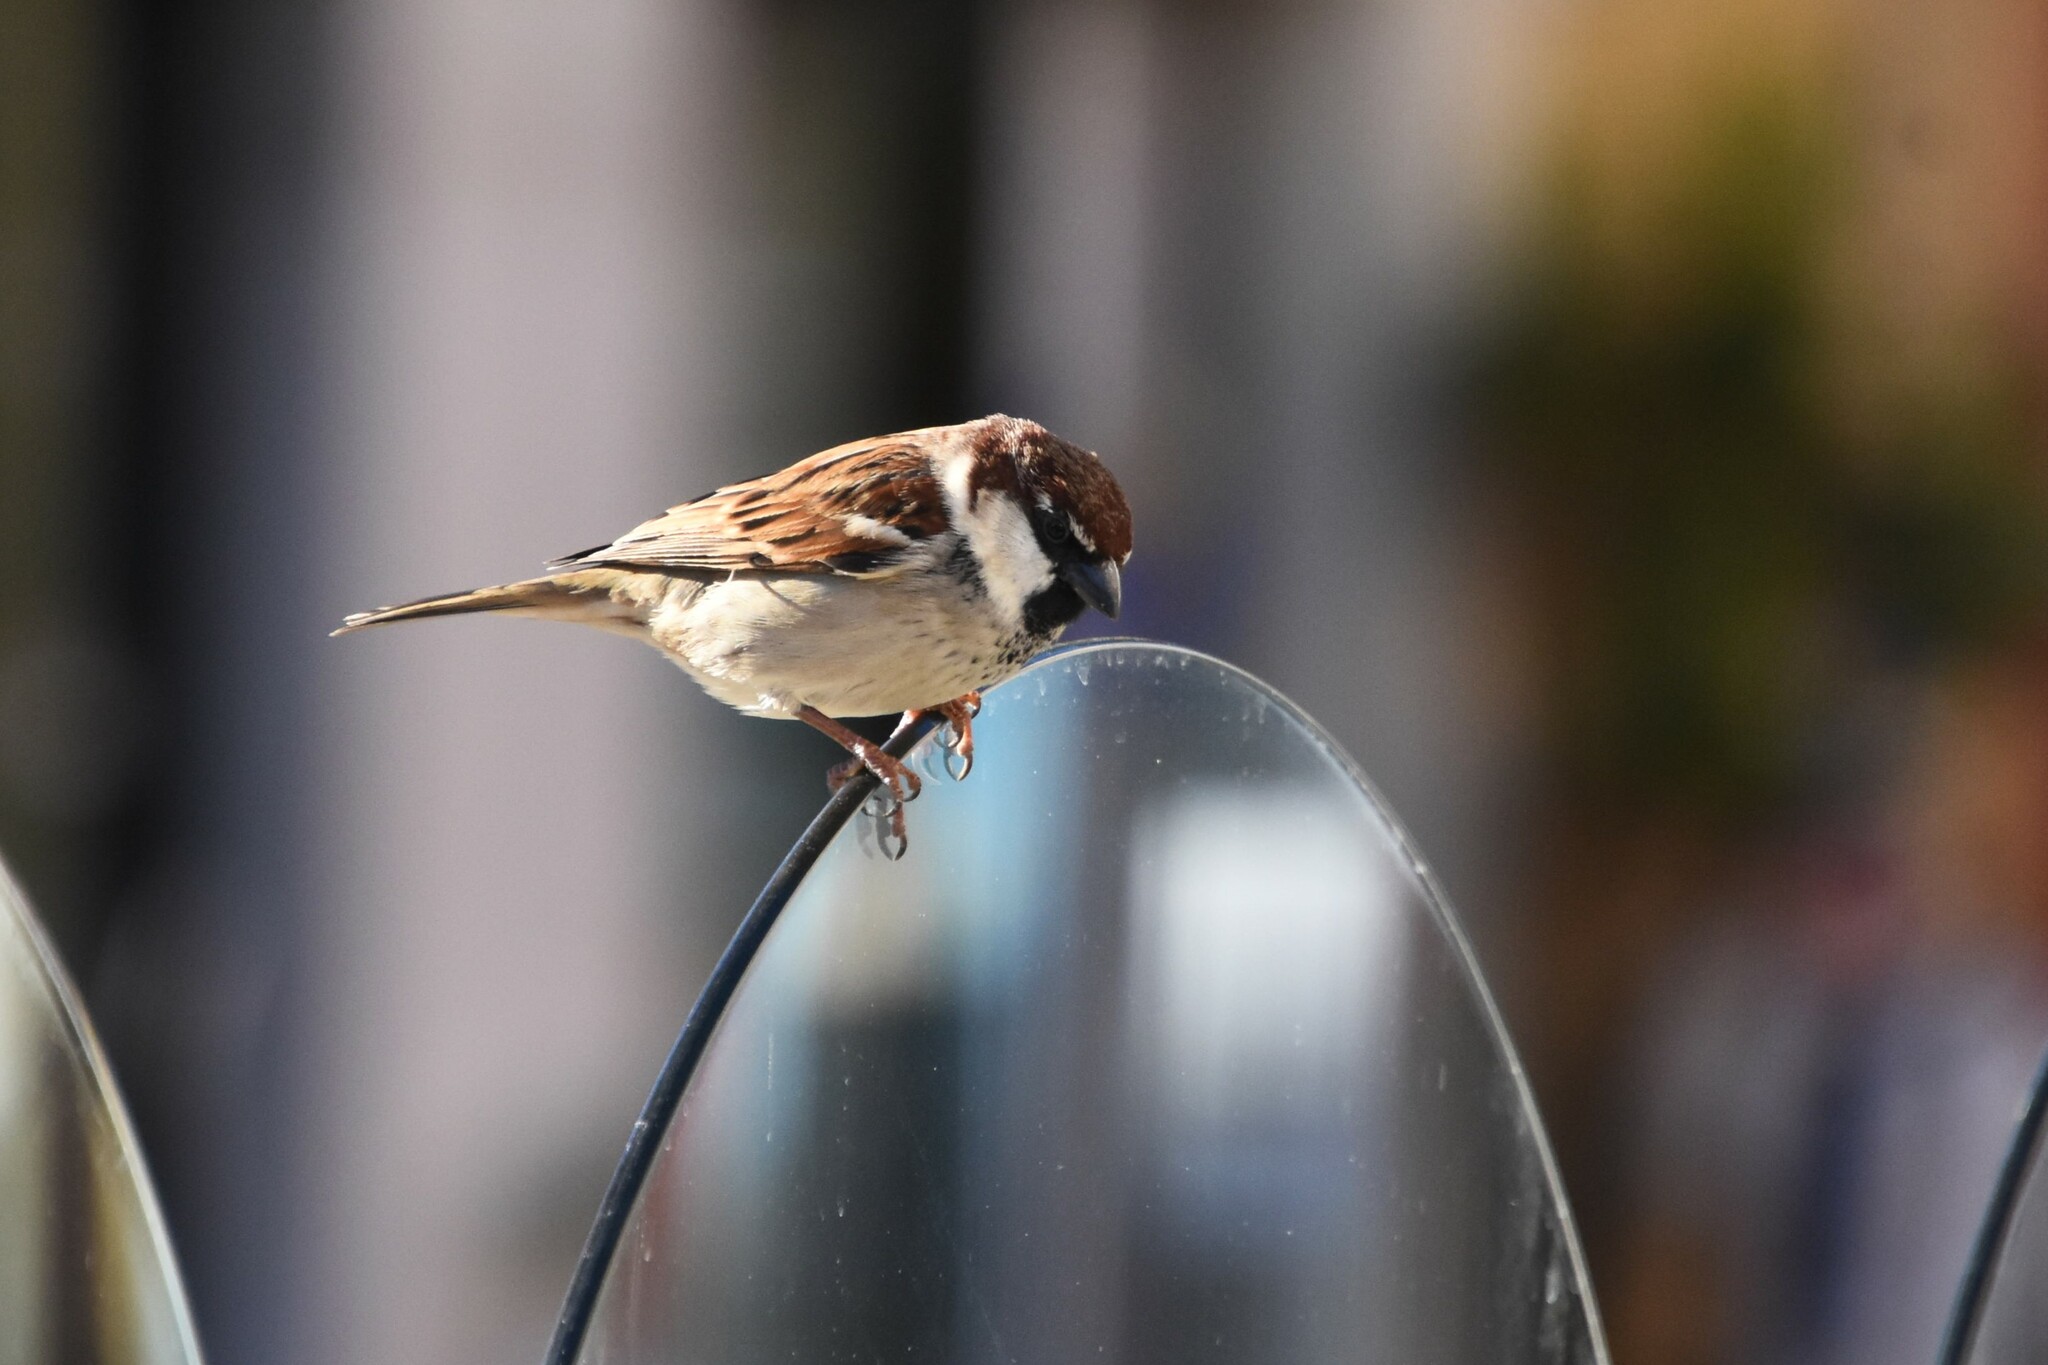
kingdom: Animalia
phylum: Chordata
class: Aves
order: Passeriformes
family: Passeridae
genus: Passer
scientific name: Passer italiae
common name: Italian sparrow
